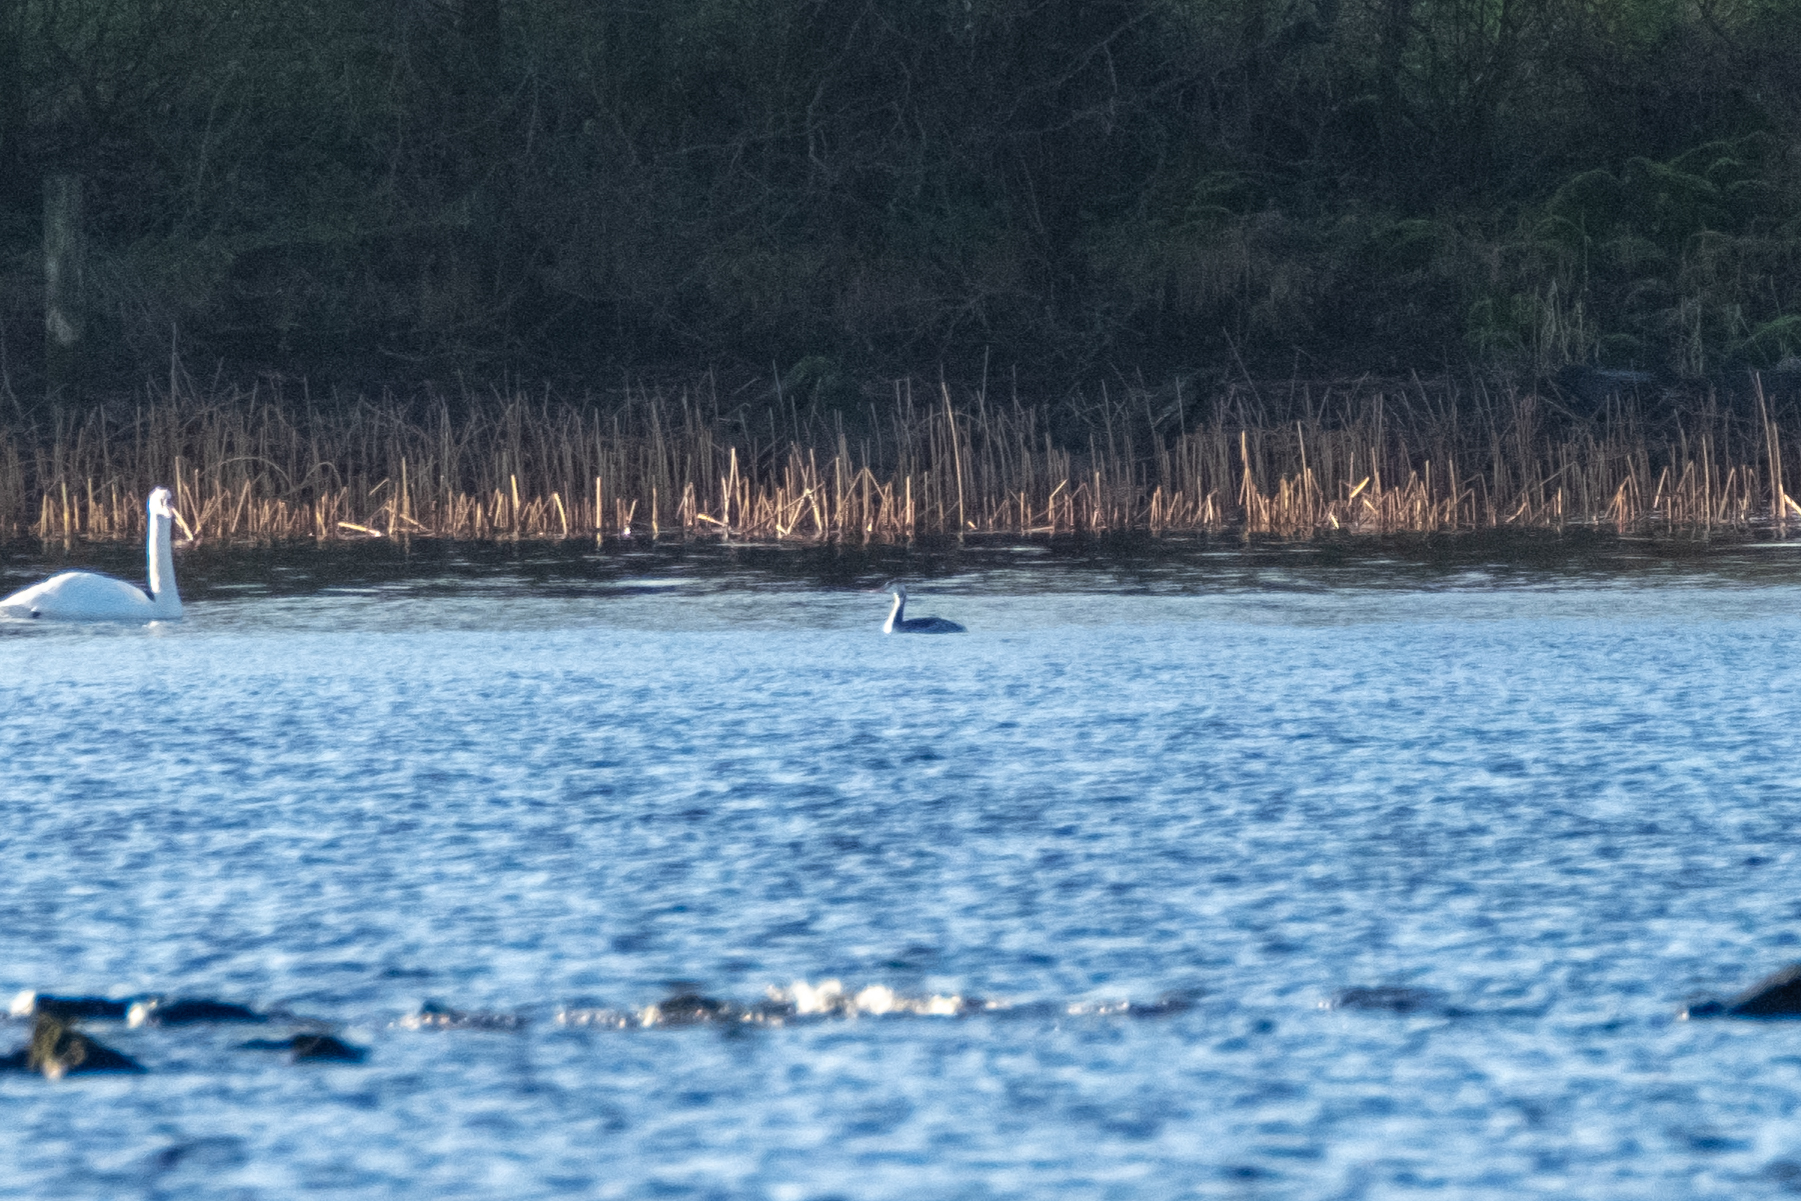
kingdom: Animalia
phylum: Chordata
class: Aves
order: Podicipediformes
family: Podicipedidae
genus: Podiceps
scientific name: Podiceps cristatus
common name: Great crested grebe
